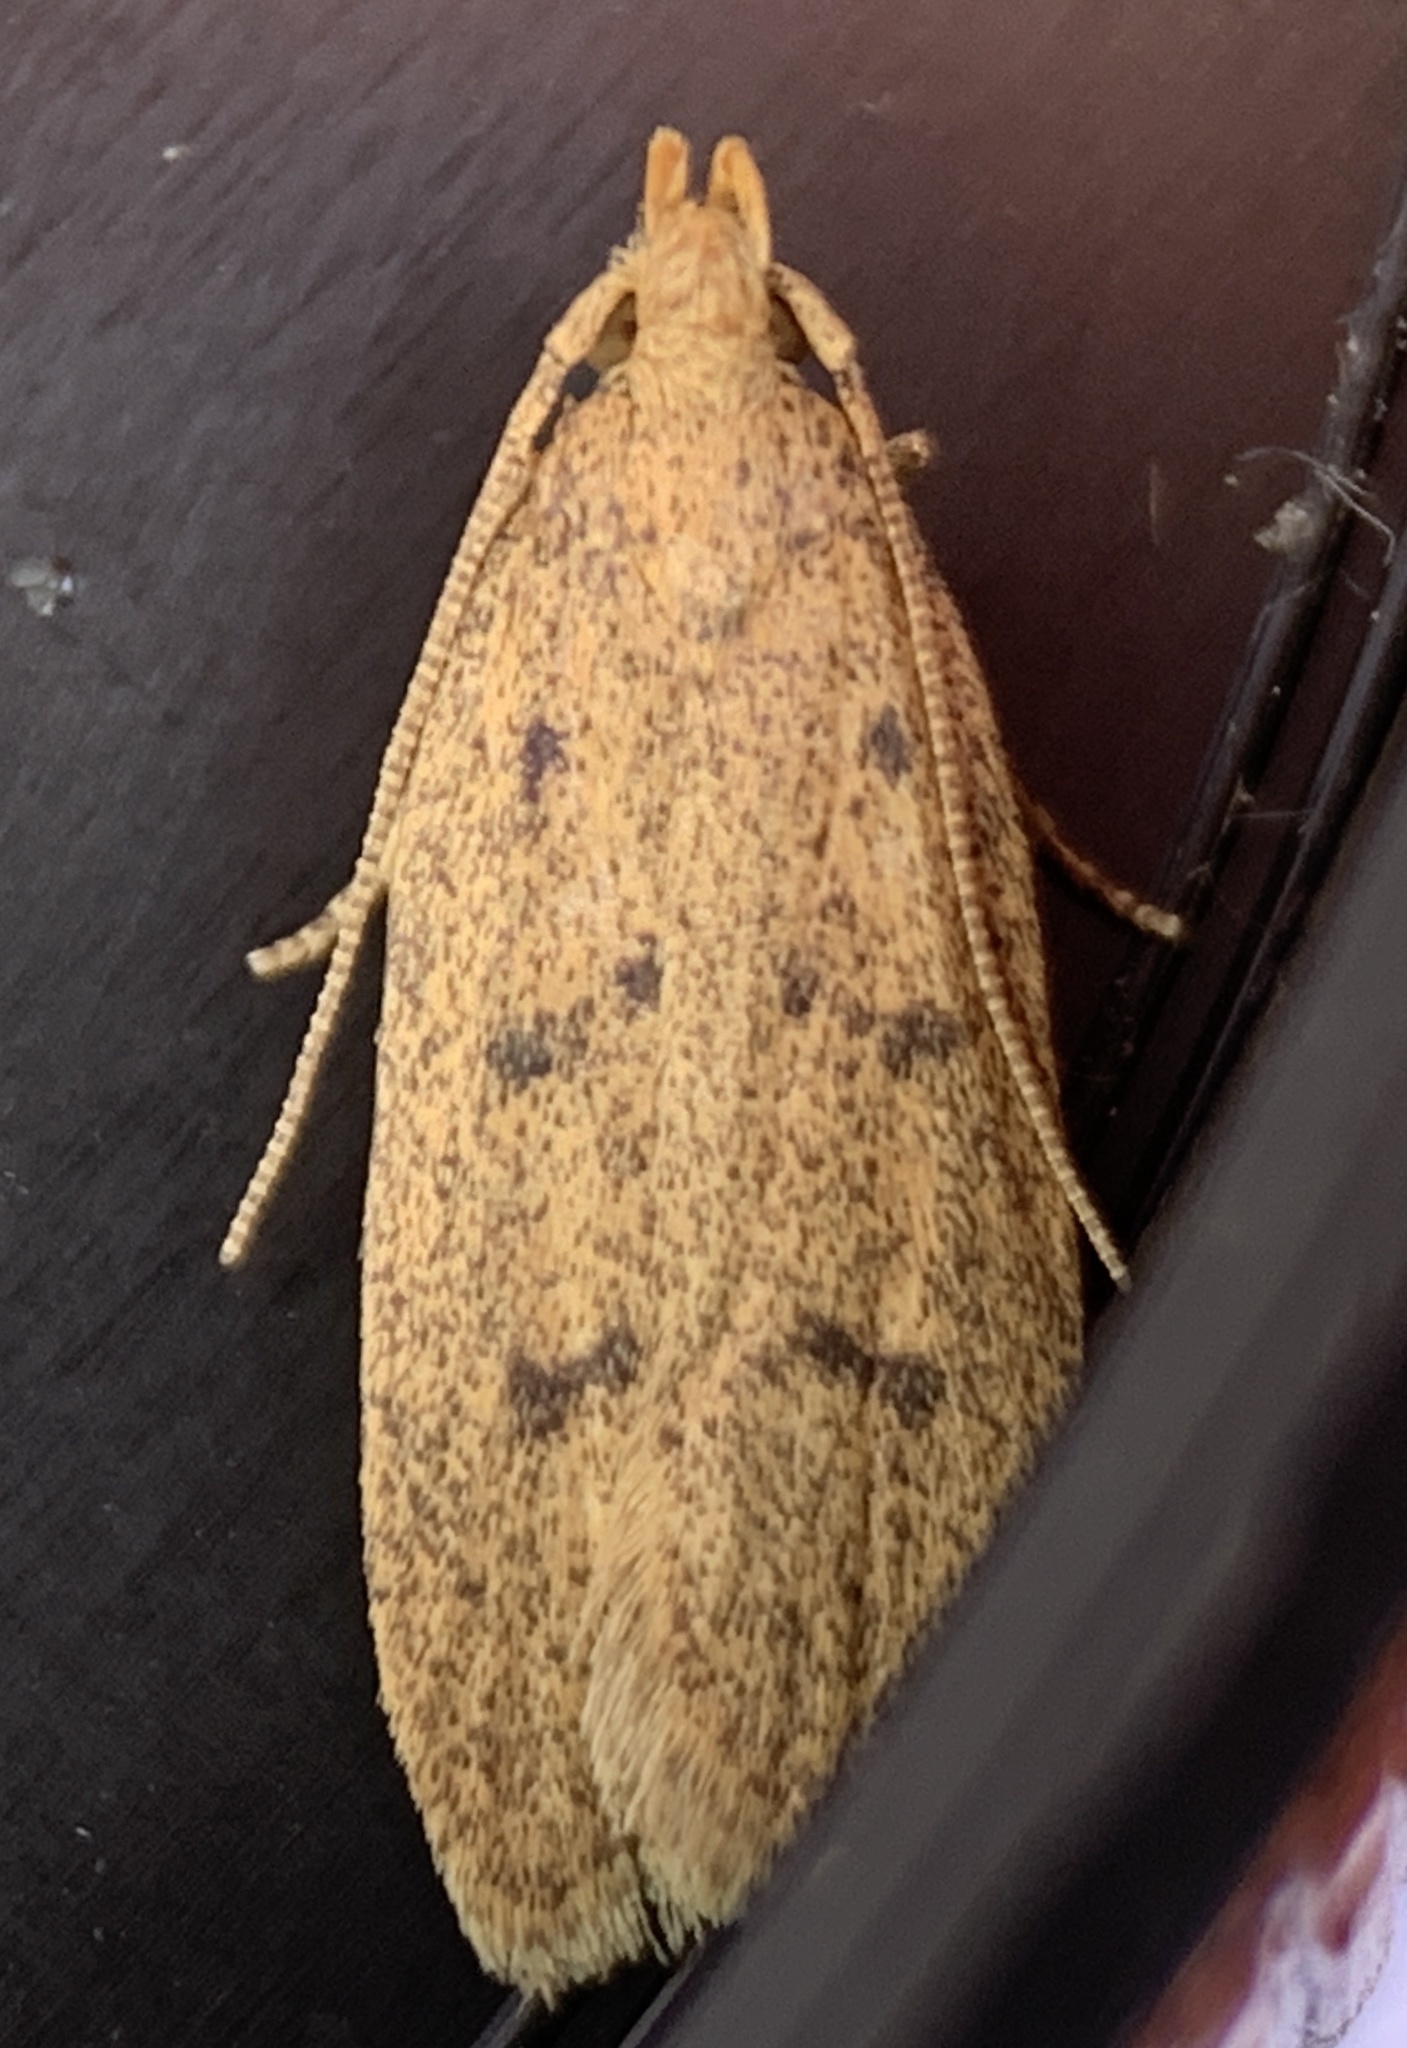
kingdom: Animalia
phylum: Arthropoda
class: Insecta
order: Lepidoptera
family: Autostichidae
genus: Glyphidocera
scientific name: Glyphidocera septentrionella
